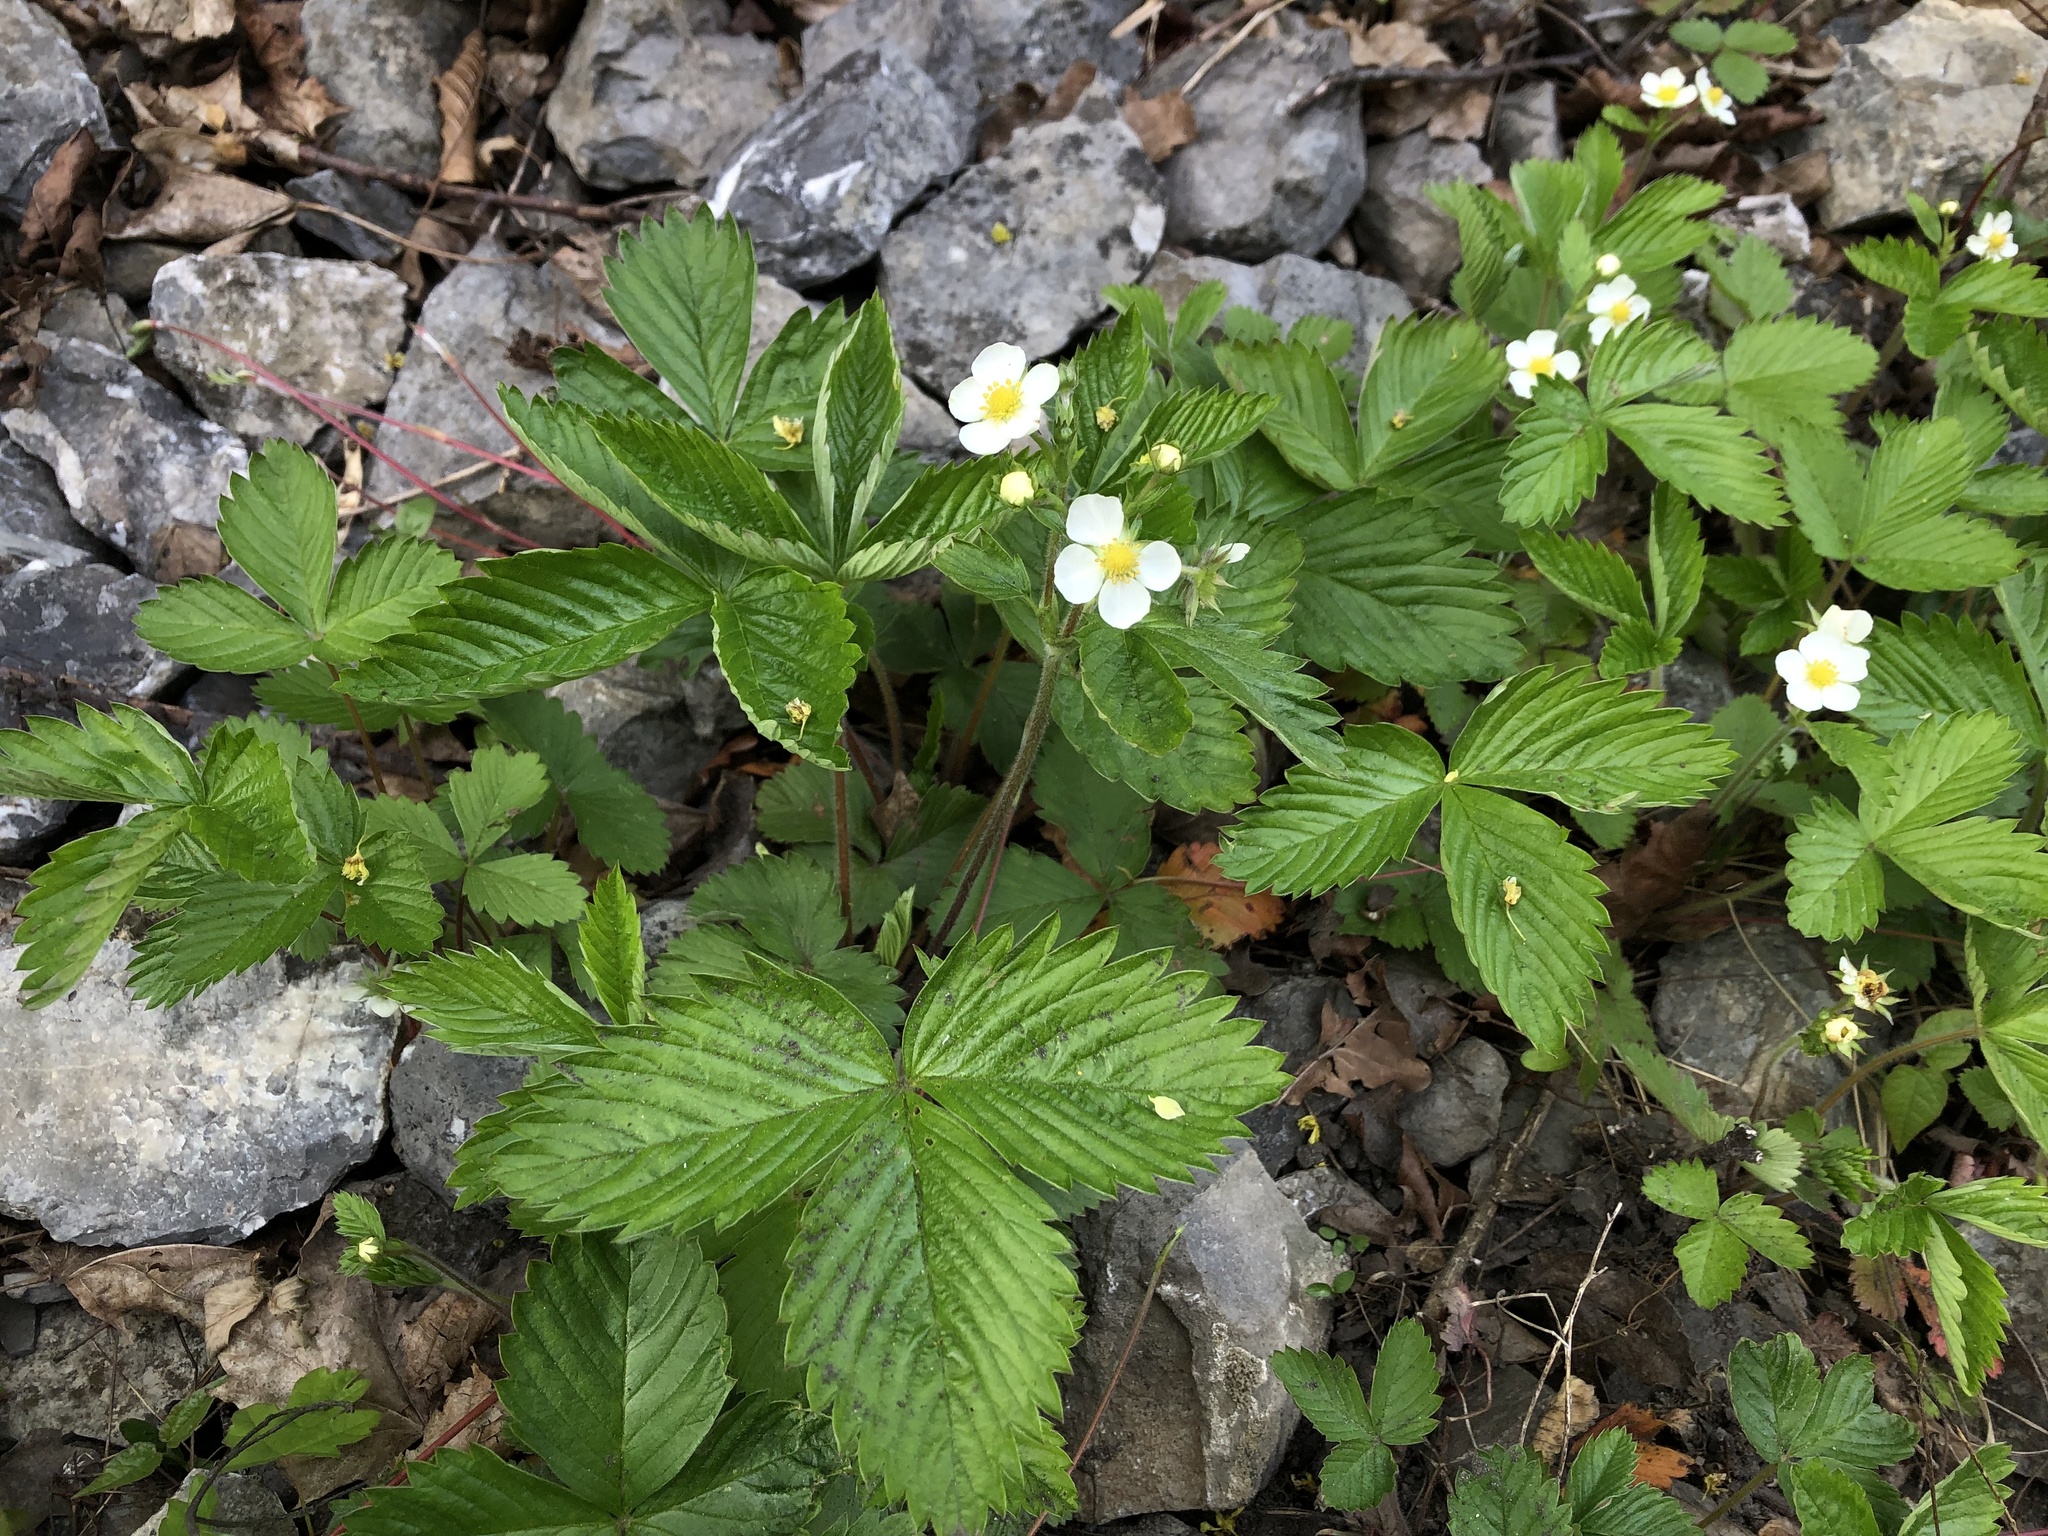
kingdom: Plantae
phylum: Tracheophyta
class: Magnoliopsida
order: Rosales
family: Rosaceae
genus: Fragaria
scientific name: Fragaria vesca
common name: Wild strawberry
